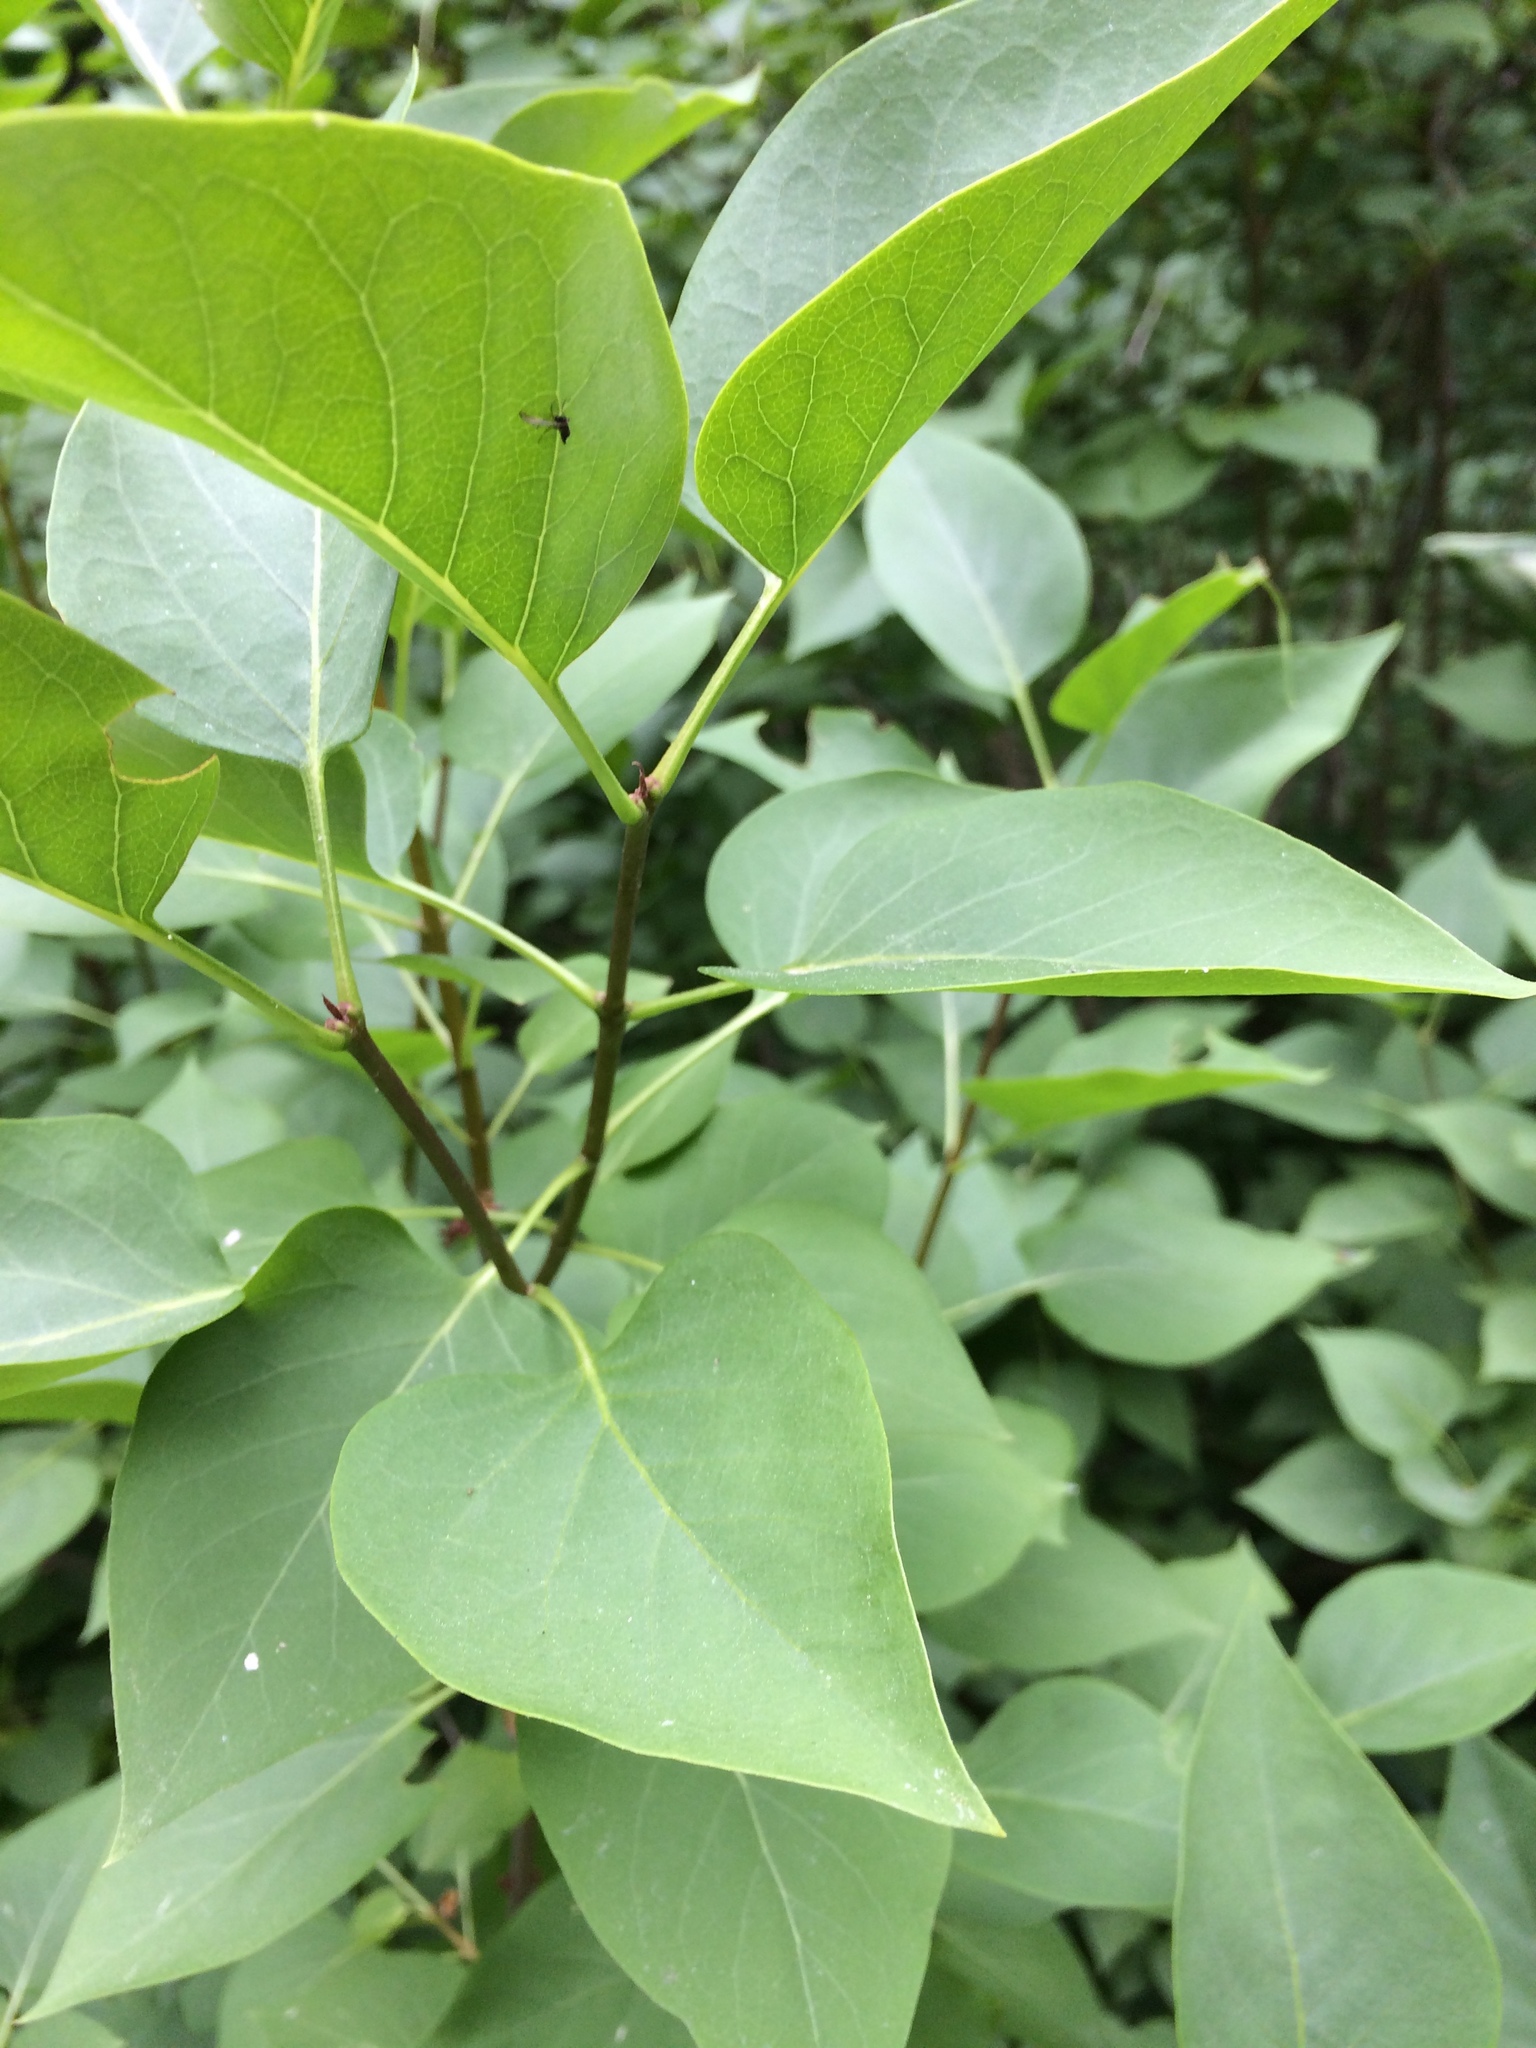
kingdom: Plantae
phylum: Tracheophyta
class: Magnoliopsida
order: Lamiales
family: Oleaceae
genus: Syringa
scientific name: Syringa vulgaris
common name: Common lilac
